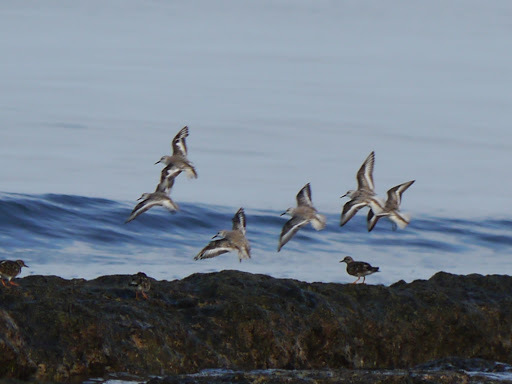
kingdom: Animalia
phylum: Chordata
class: Aves
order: Charadriiformes
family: Scolopacidae
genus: Calidris
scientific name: Calidris alba
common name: Sanderling
